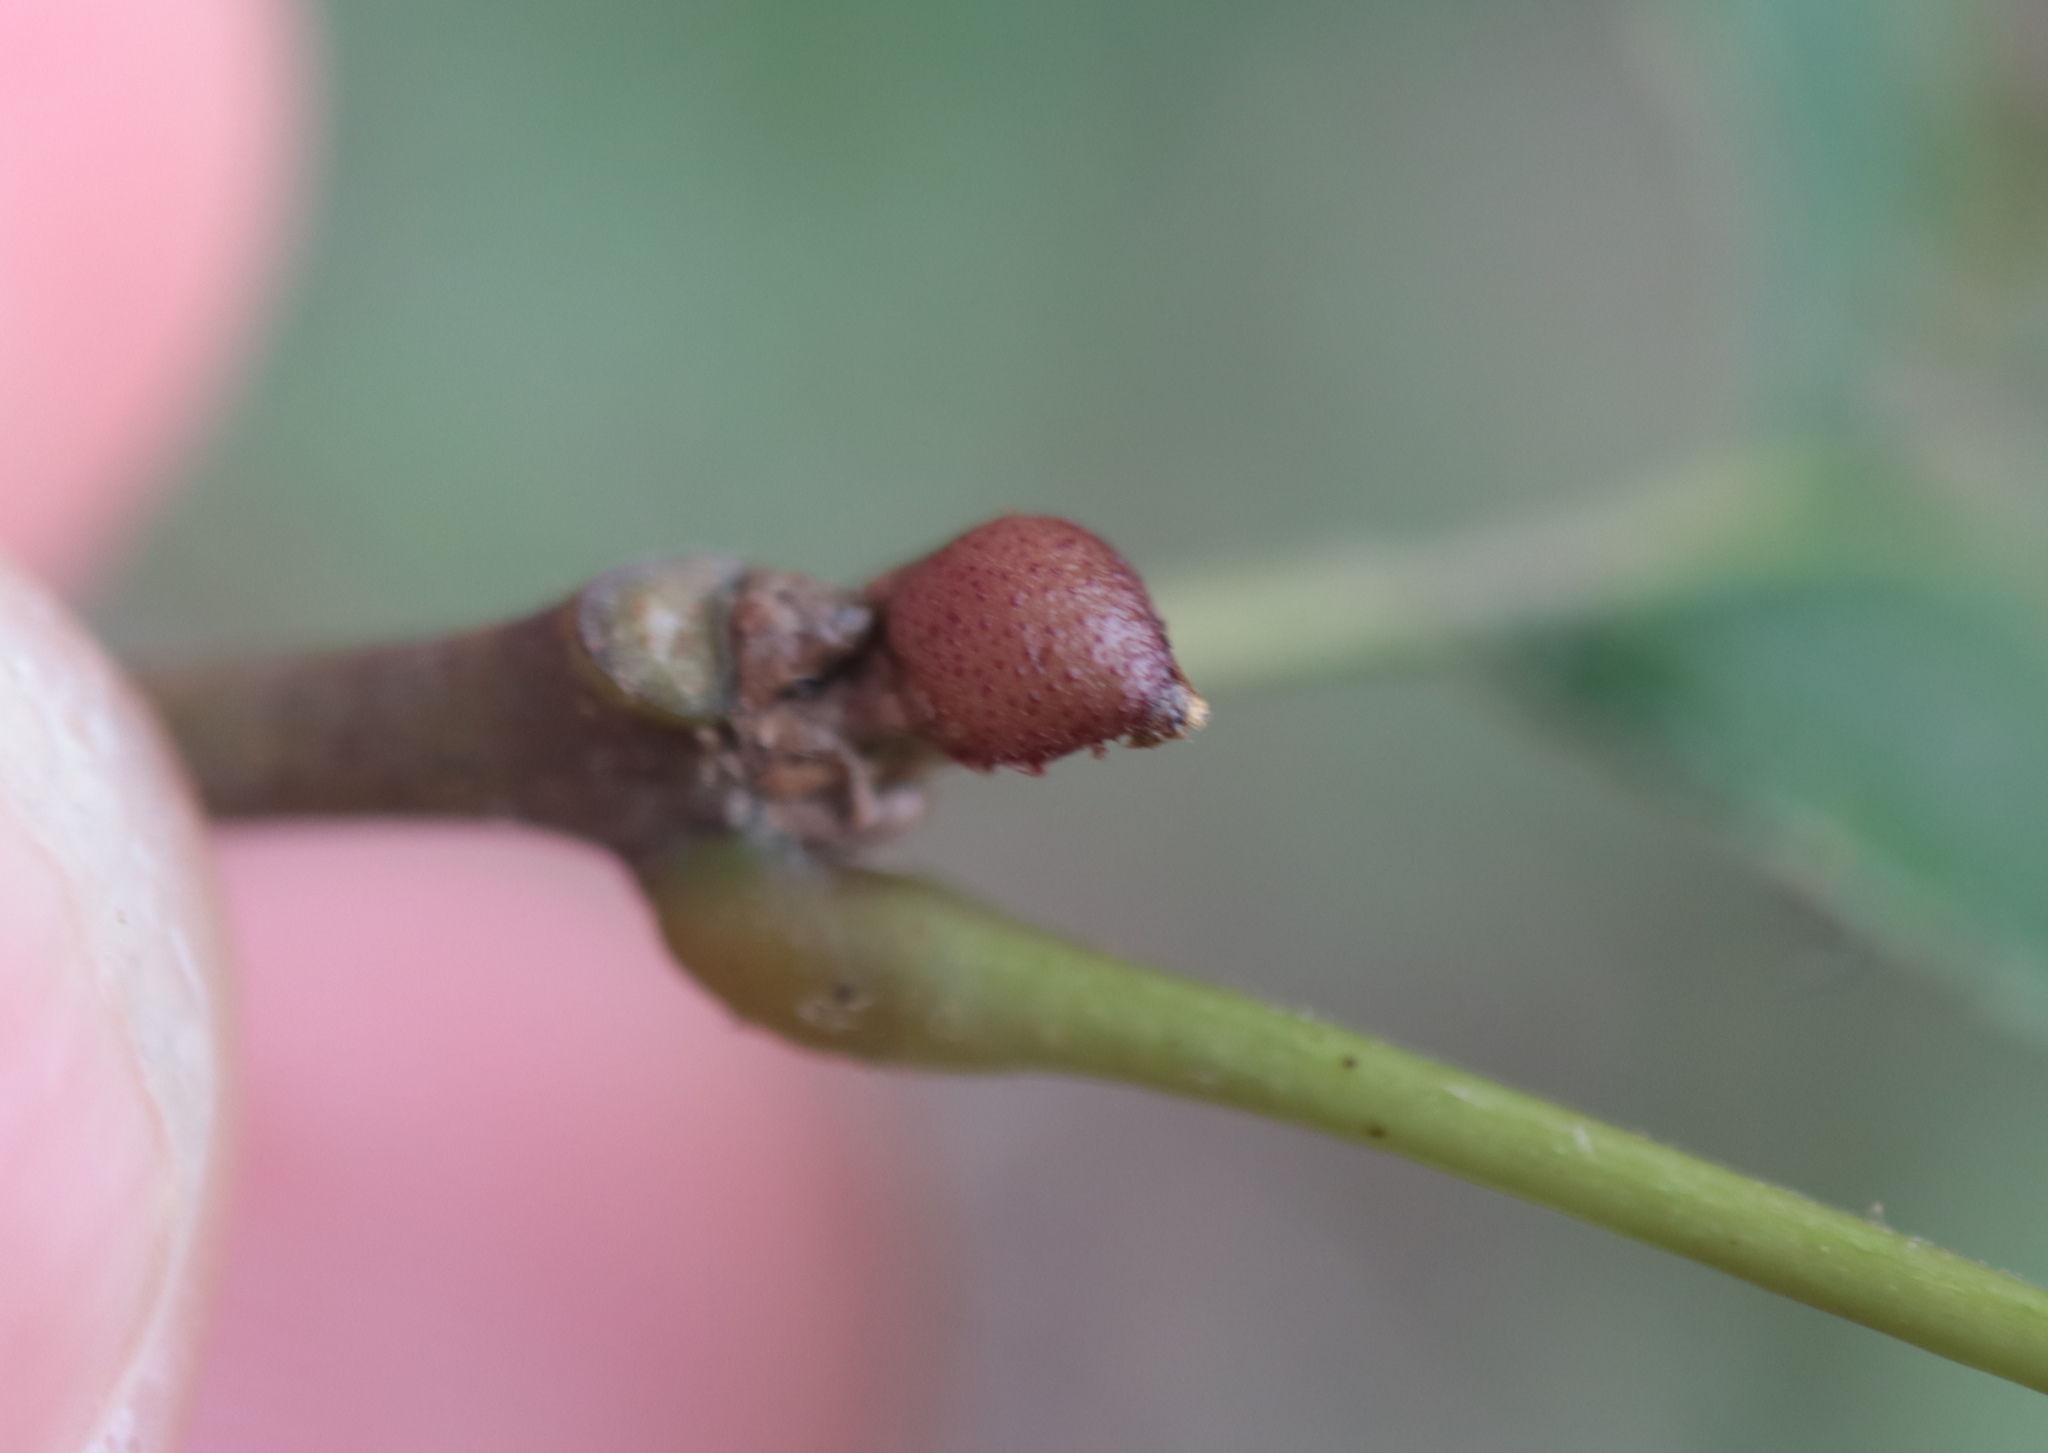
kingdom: Animalia
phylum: Arthropoda
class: Insecta
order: Hymenoptera
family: Cynipidae
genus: Amphibolips
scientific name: Amphibolips
